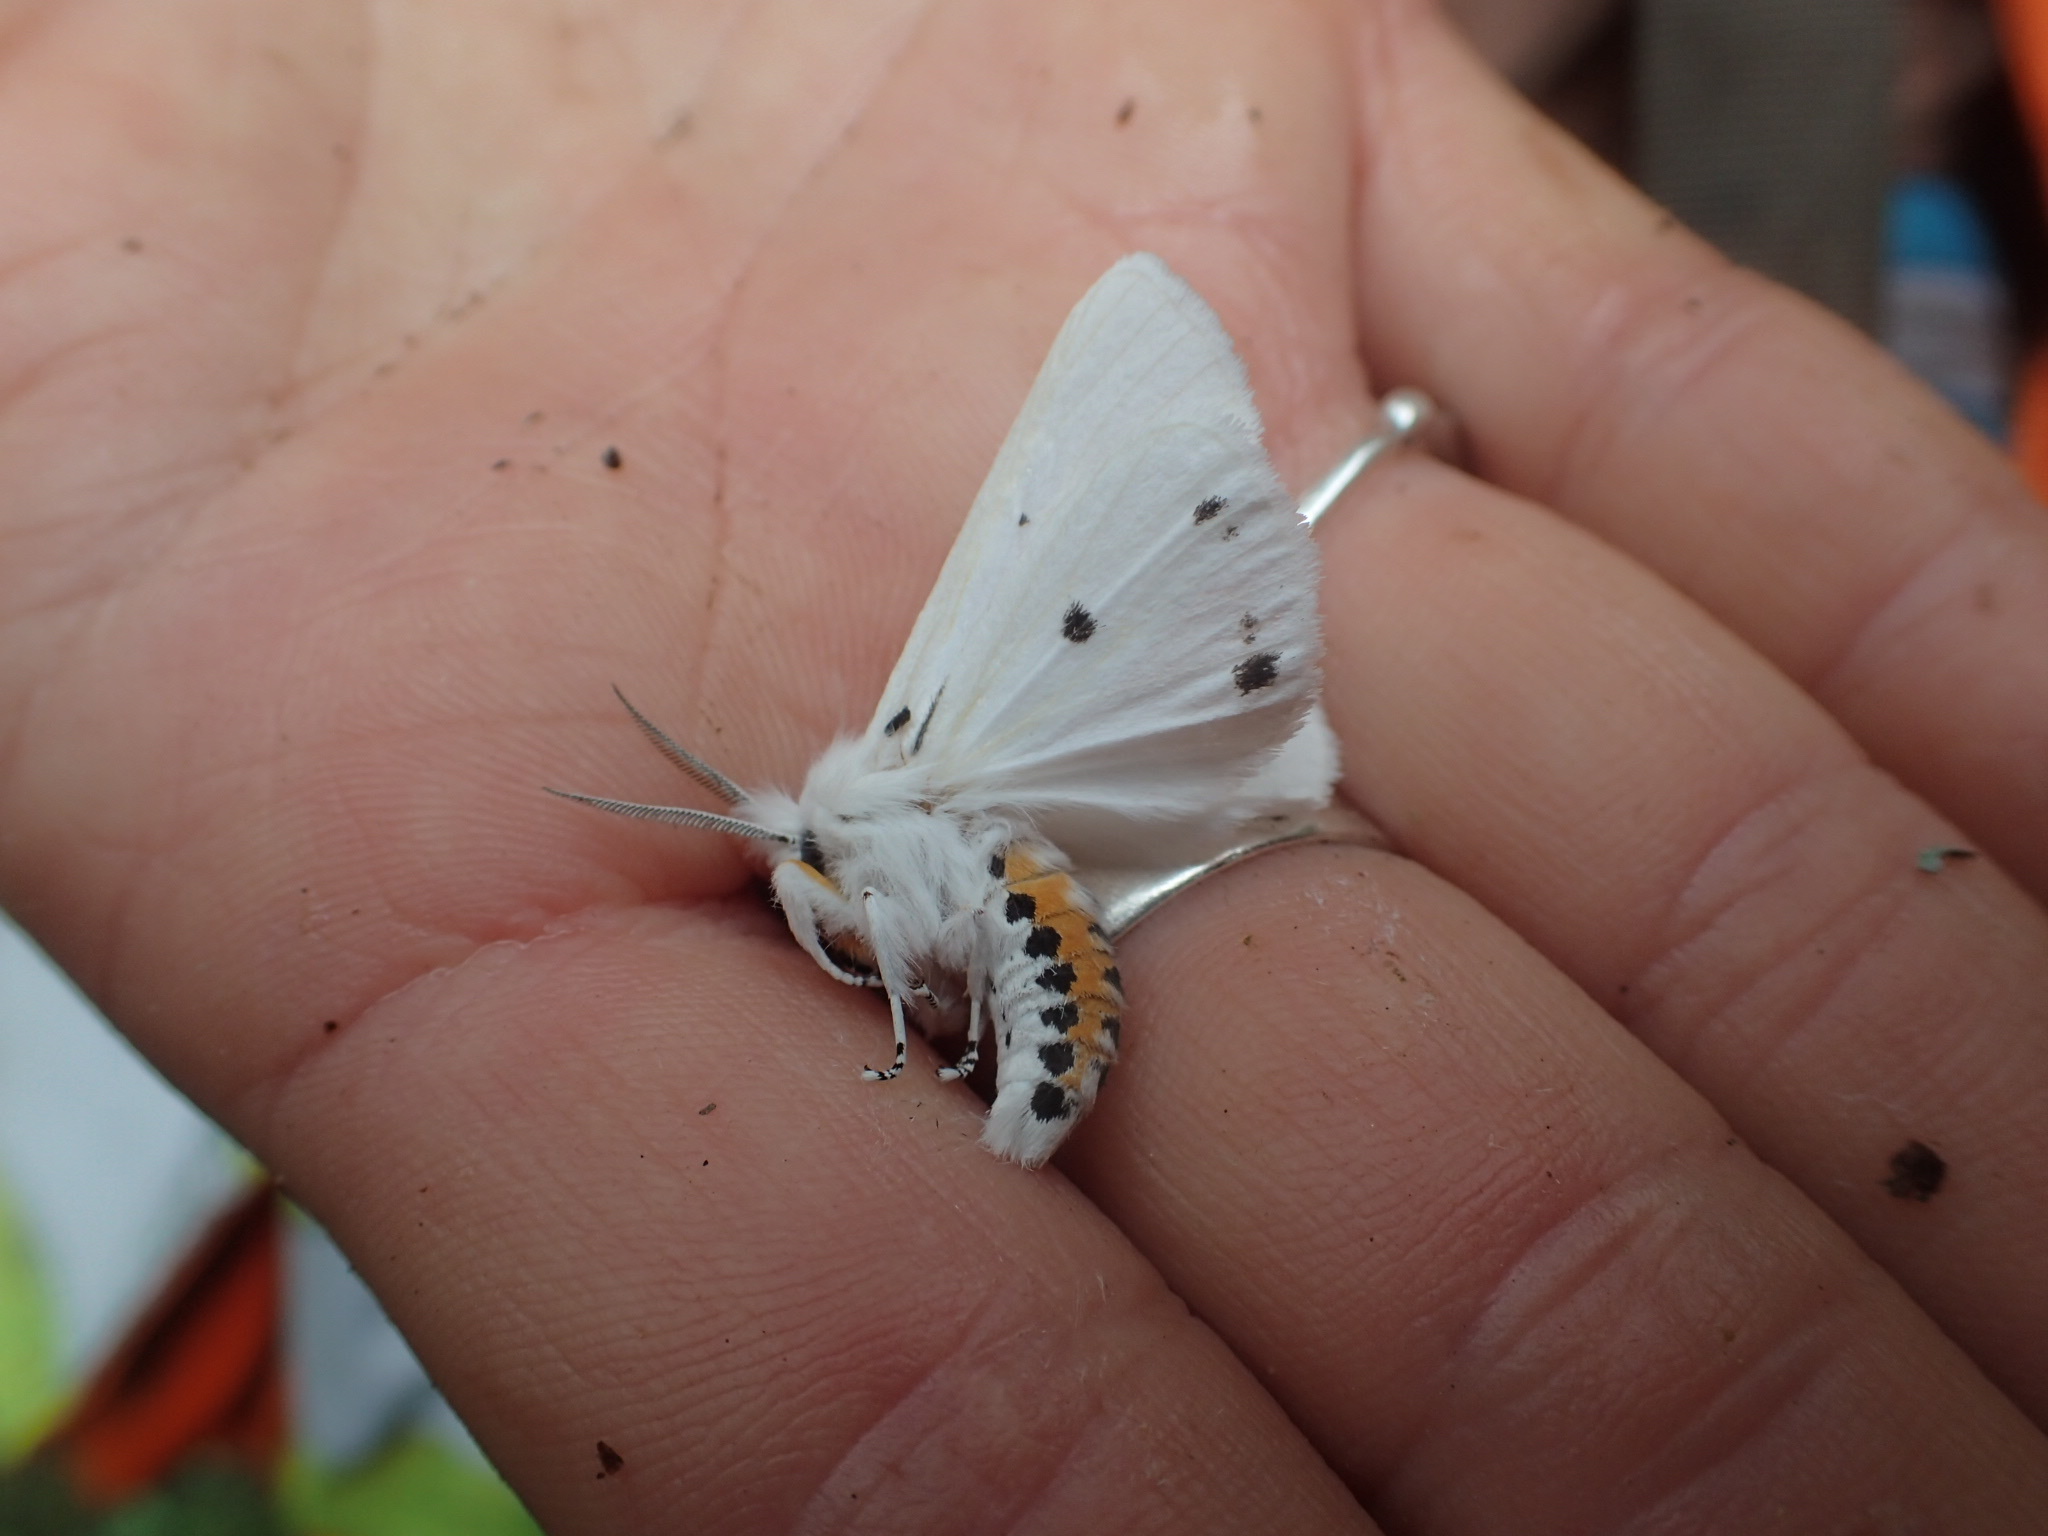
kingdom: Animalia
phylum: Arthropoda
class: Insecta
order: Lepidoptera
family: Erebidae
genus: Spilosoma
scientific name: Spilosoma virginica
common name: Virginia tiger moth
